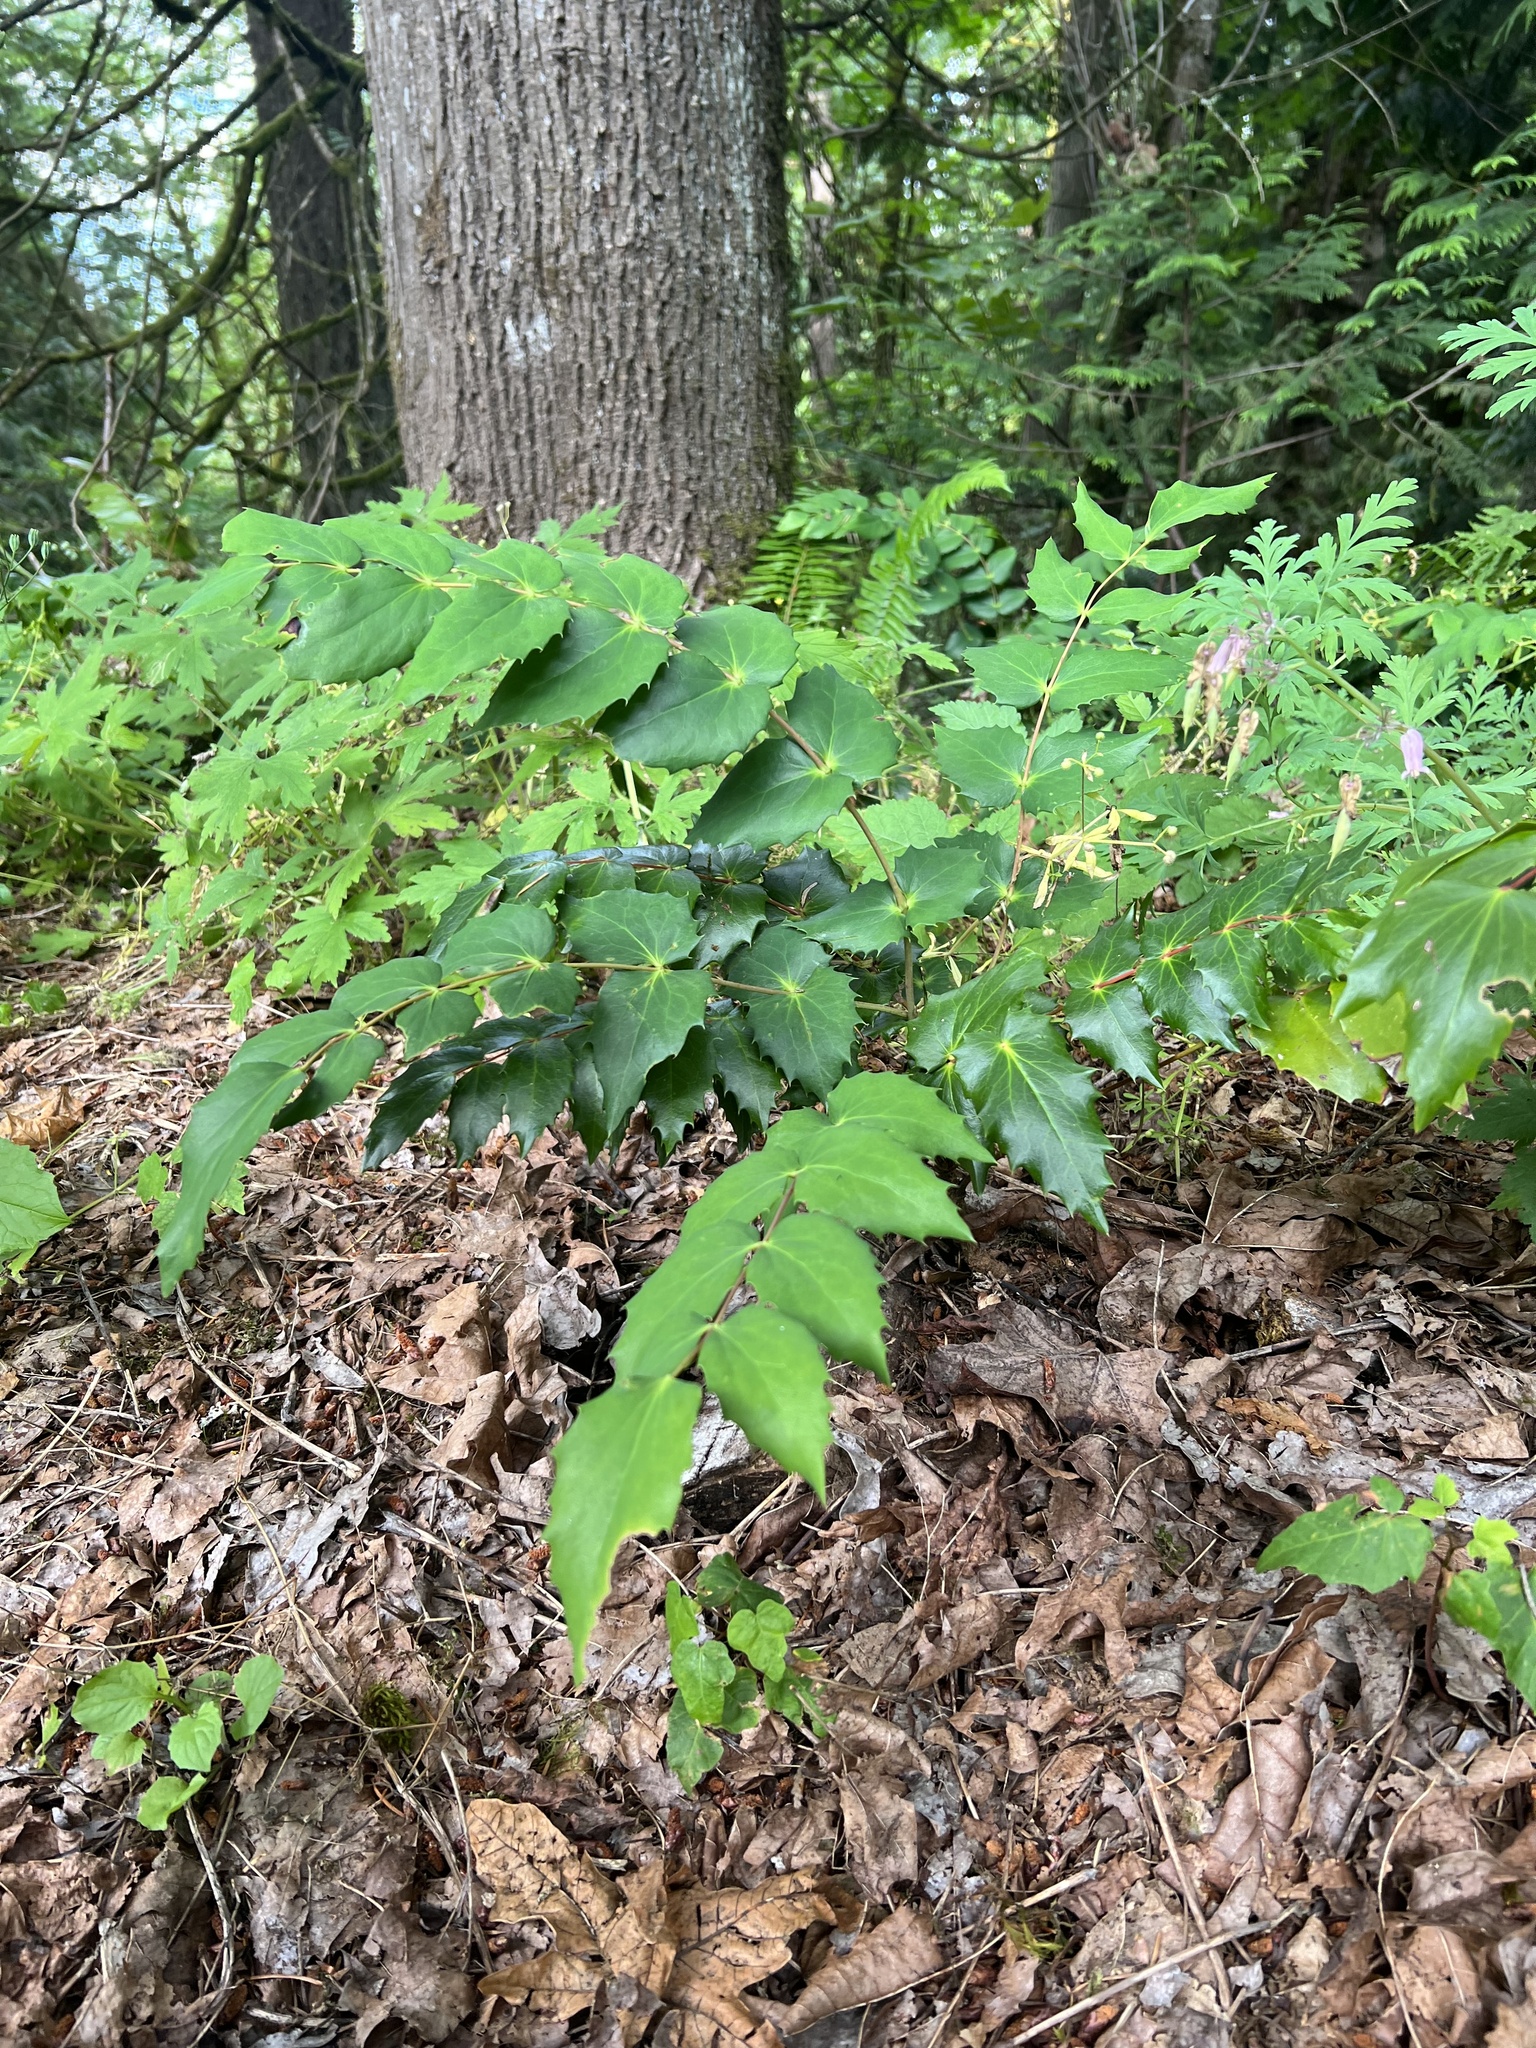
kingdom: Plantae
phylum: Tracheophyta
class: Magnoliopsida
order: Ranunculales
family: Berberidaceae
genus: Mahonia
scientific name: Mahonia nervosa
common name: Cascade oregon-grape
